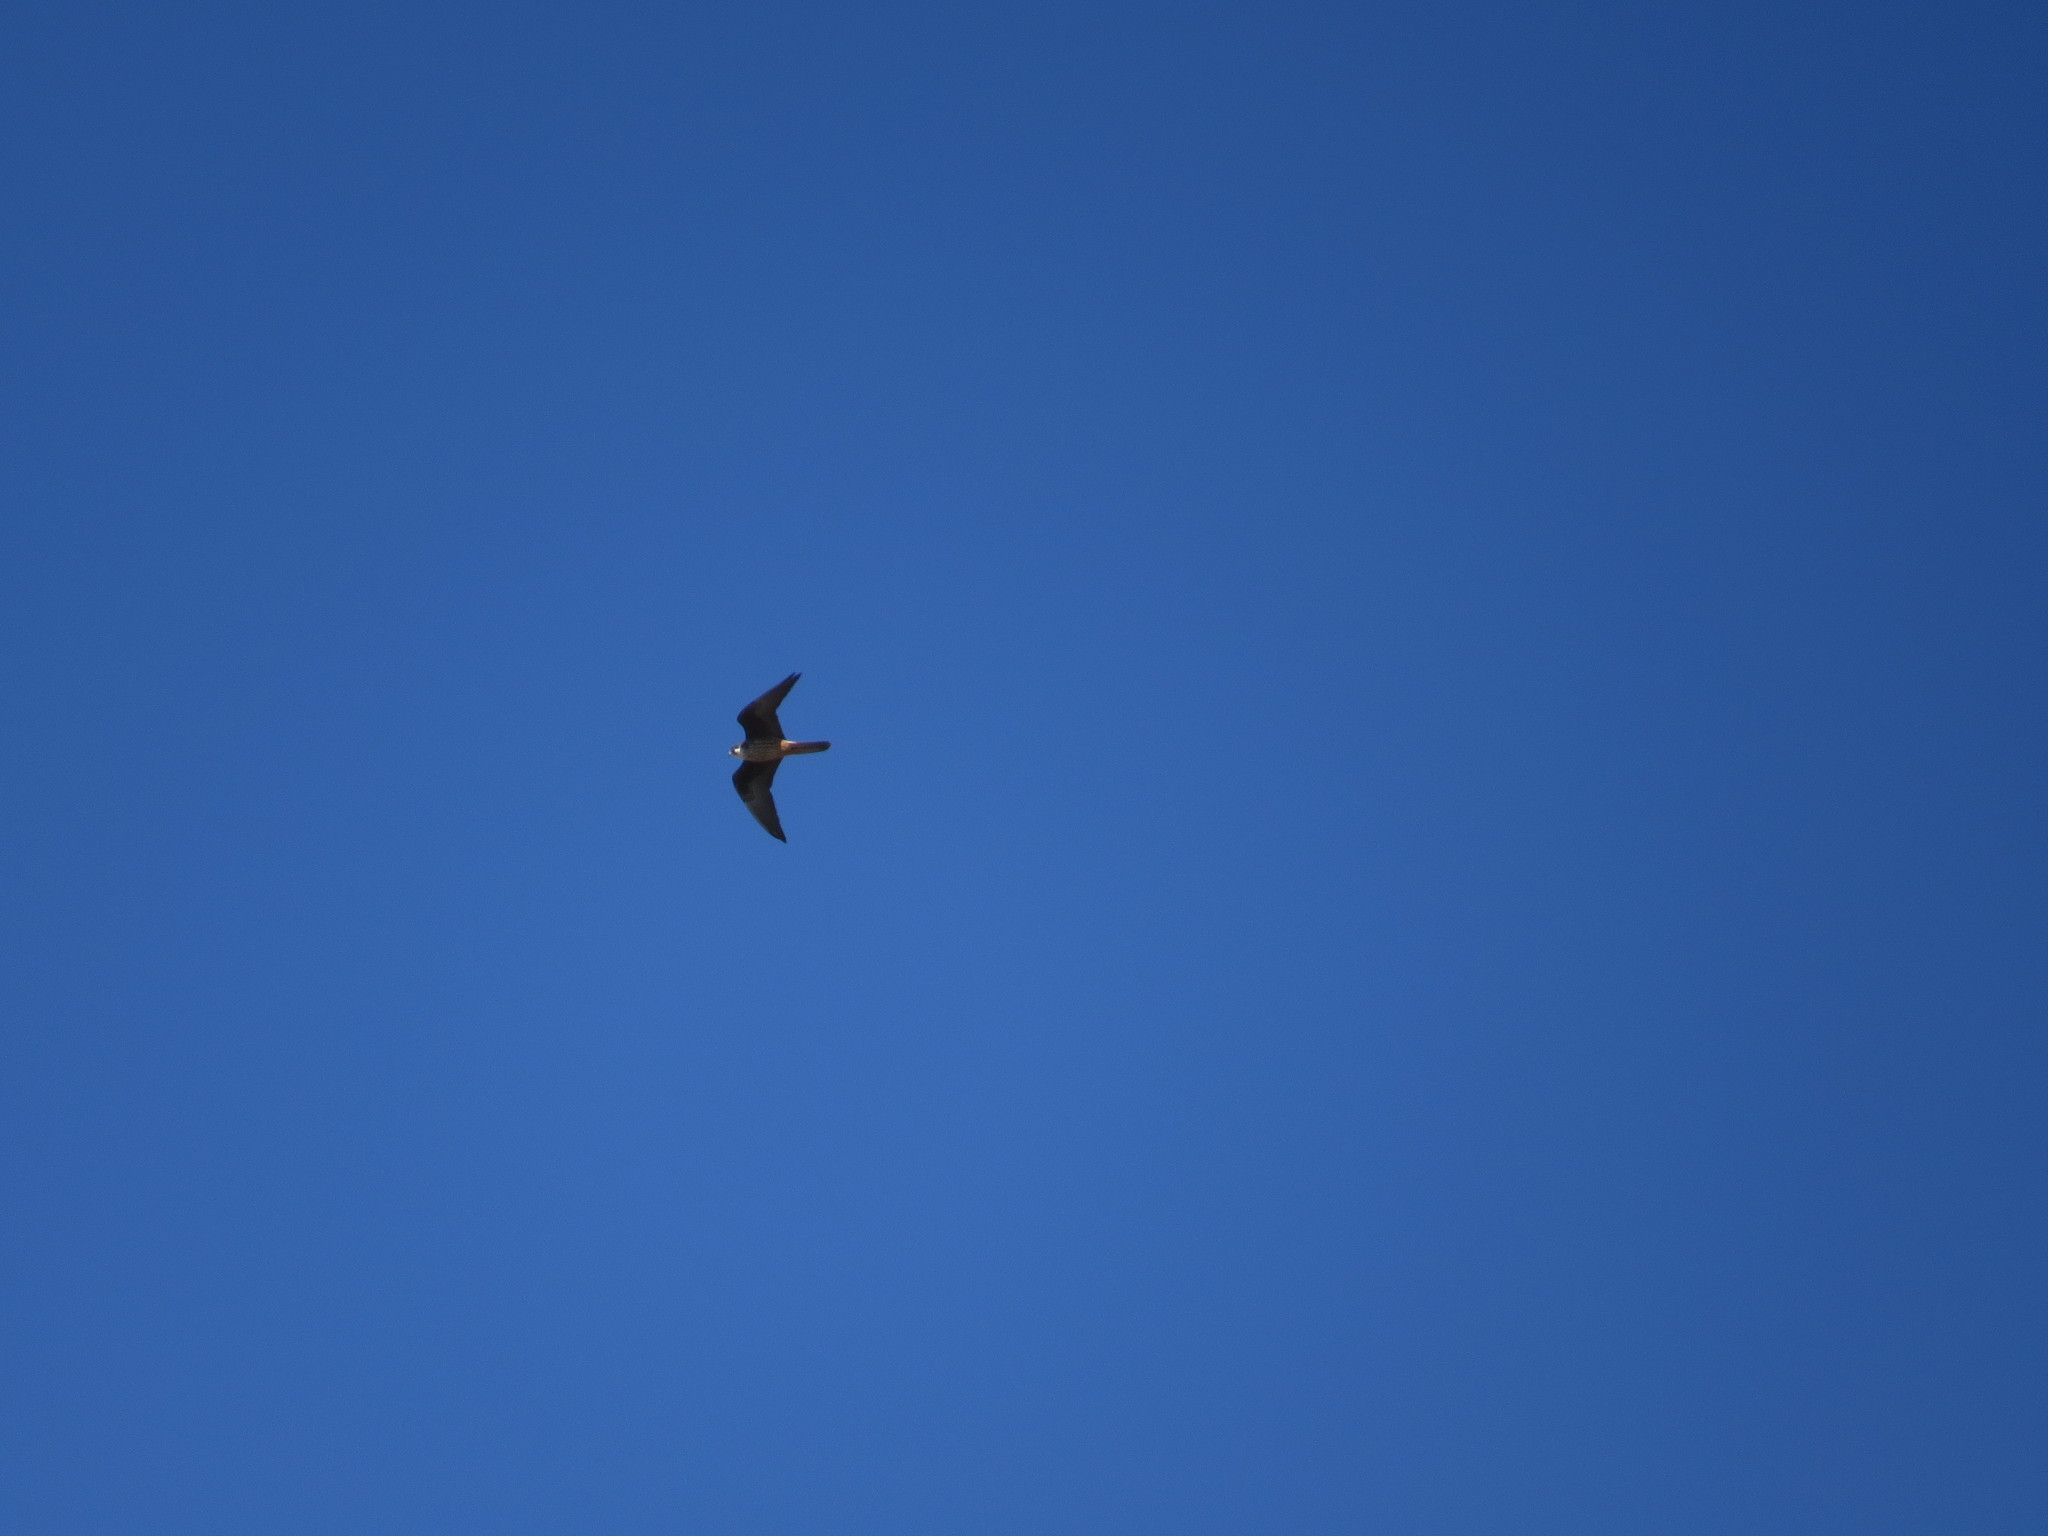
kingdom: Animalia
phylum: Chordata
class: Aves
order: Falconiformes
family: Falconidae
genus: Falco
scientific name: Falco eleonorae
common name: Eleonora's falcon
